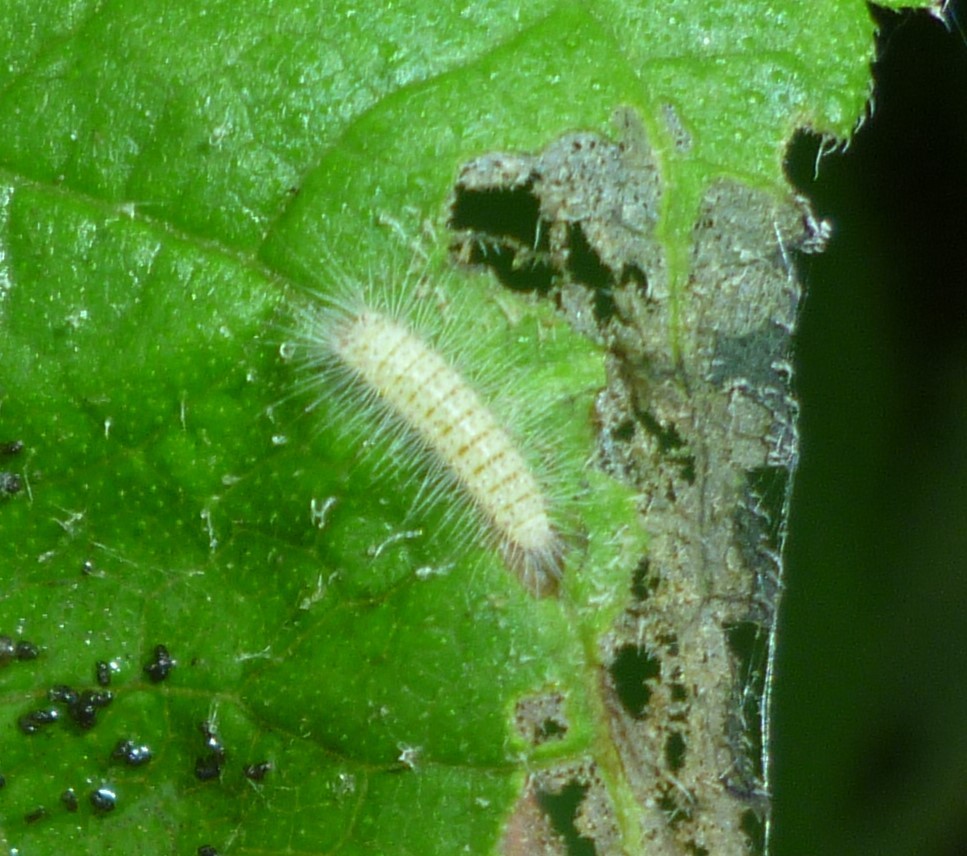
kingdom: Animalia
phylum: Arthropoda
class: Insecta
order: Lepidoptera
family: Pterophoridae
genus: Adaina
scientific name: Adaina ambrosiae
